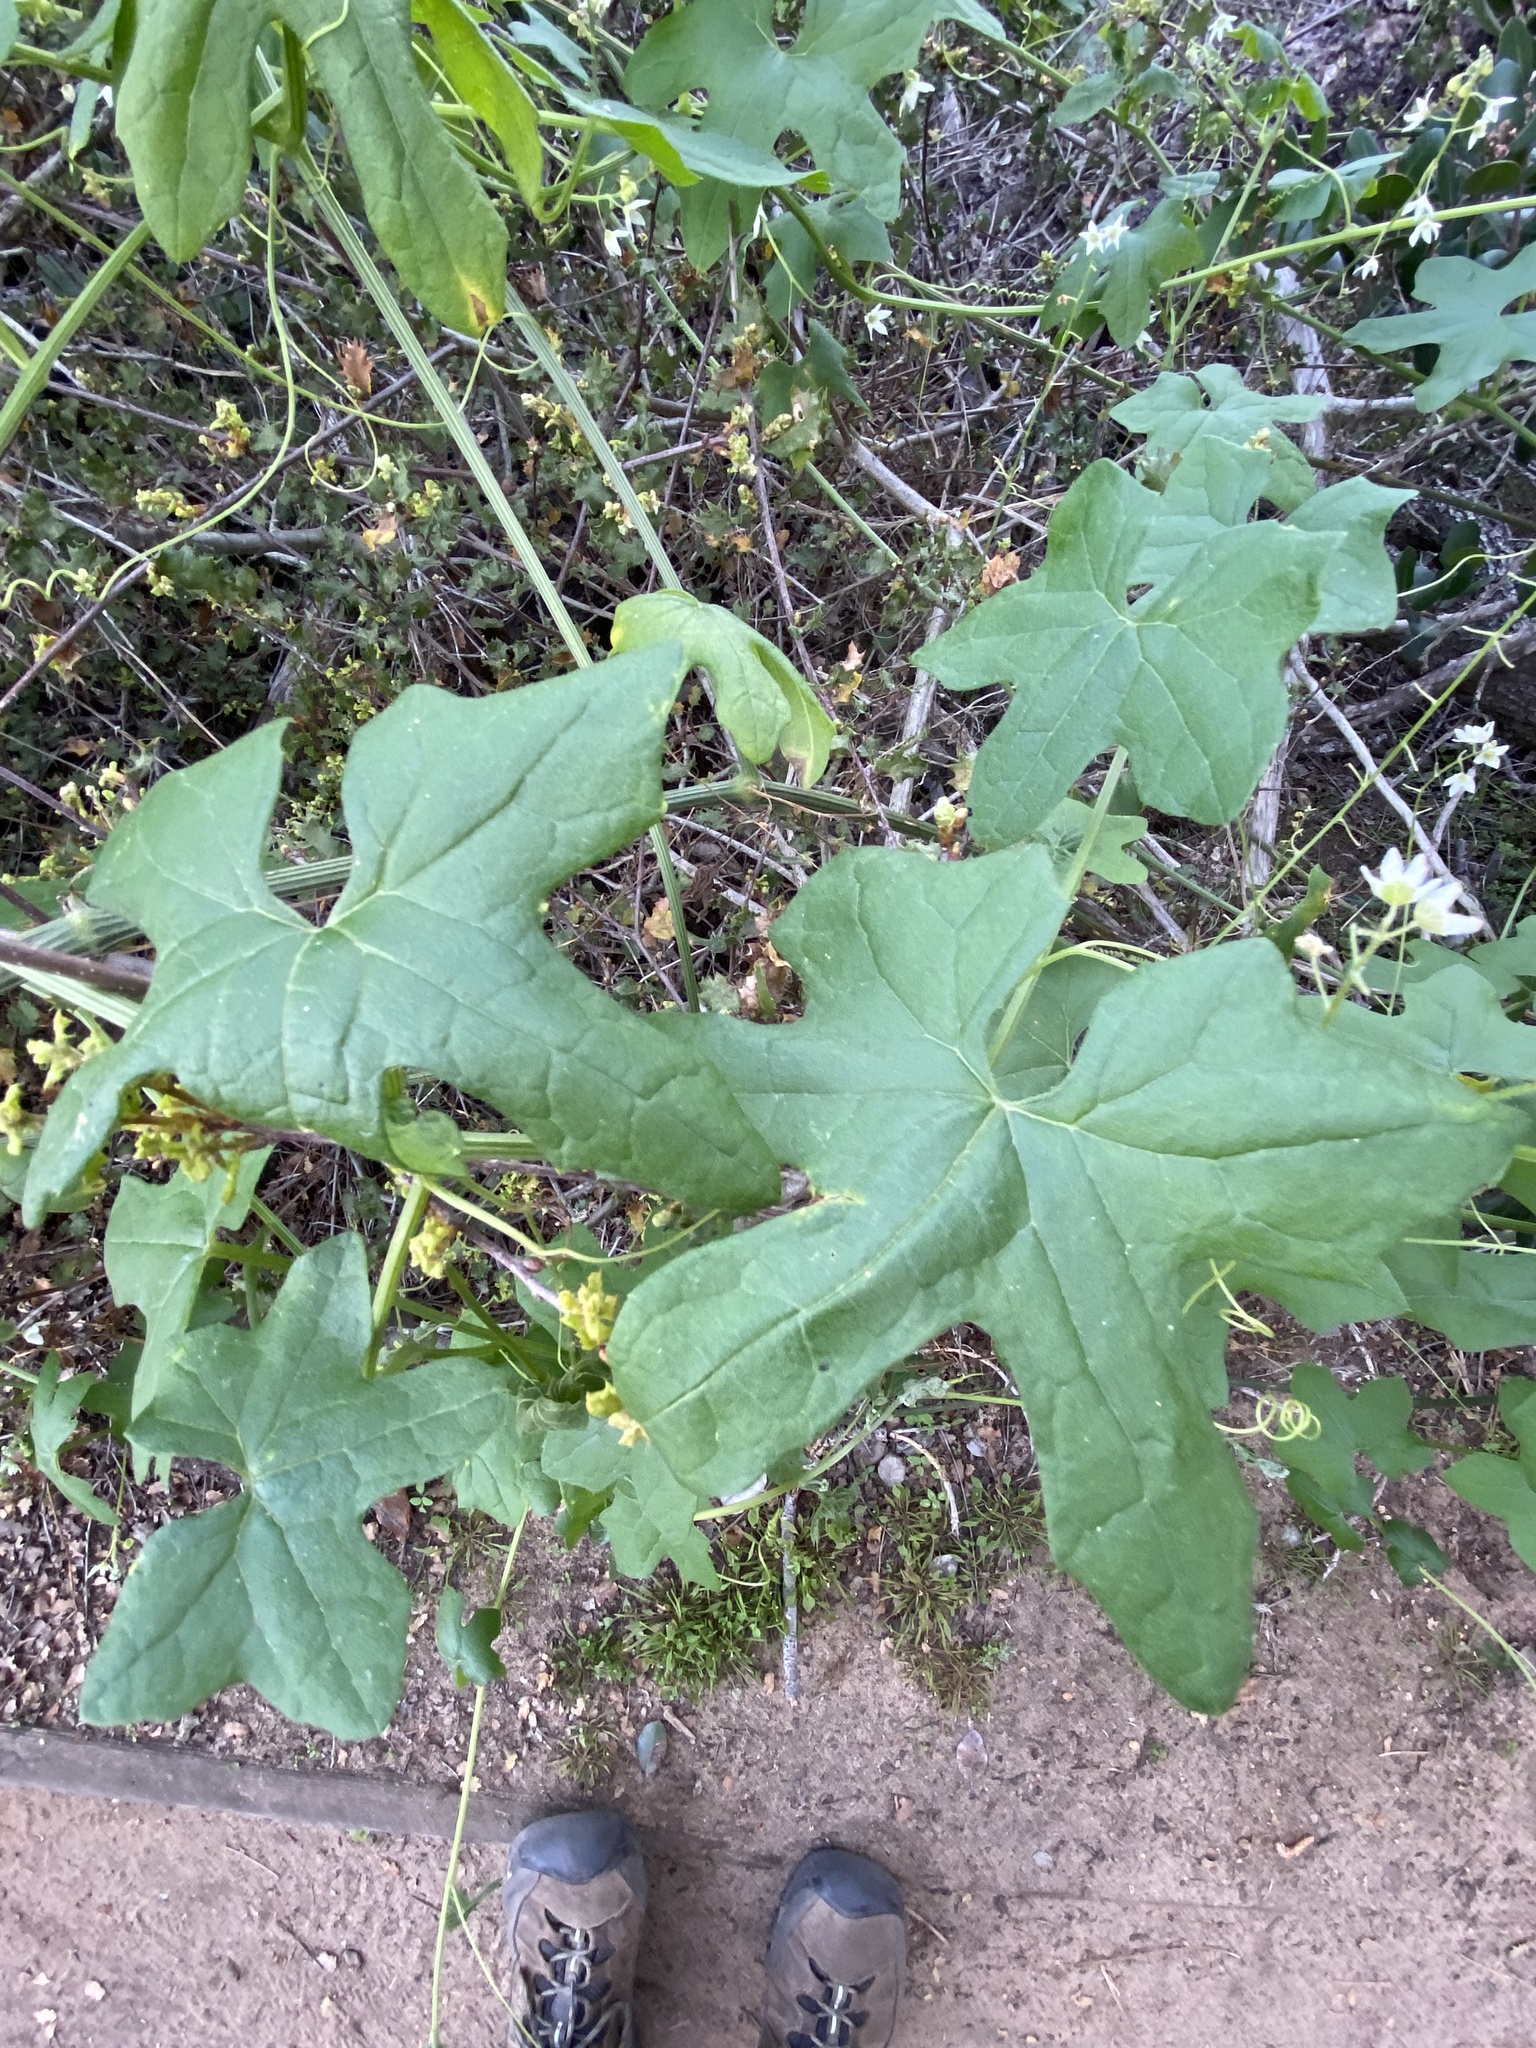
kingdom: Plantae
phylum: Tracheophyta
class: Magnoliopsida
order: Cucurbitales
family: Cucurbitaceae
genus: Marah
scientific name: Marah macrocarpa
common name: Cucamonga manroot
